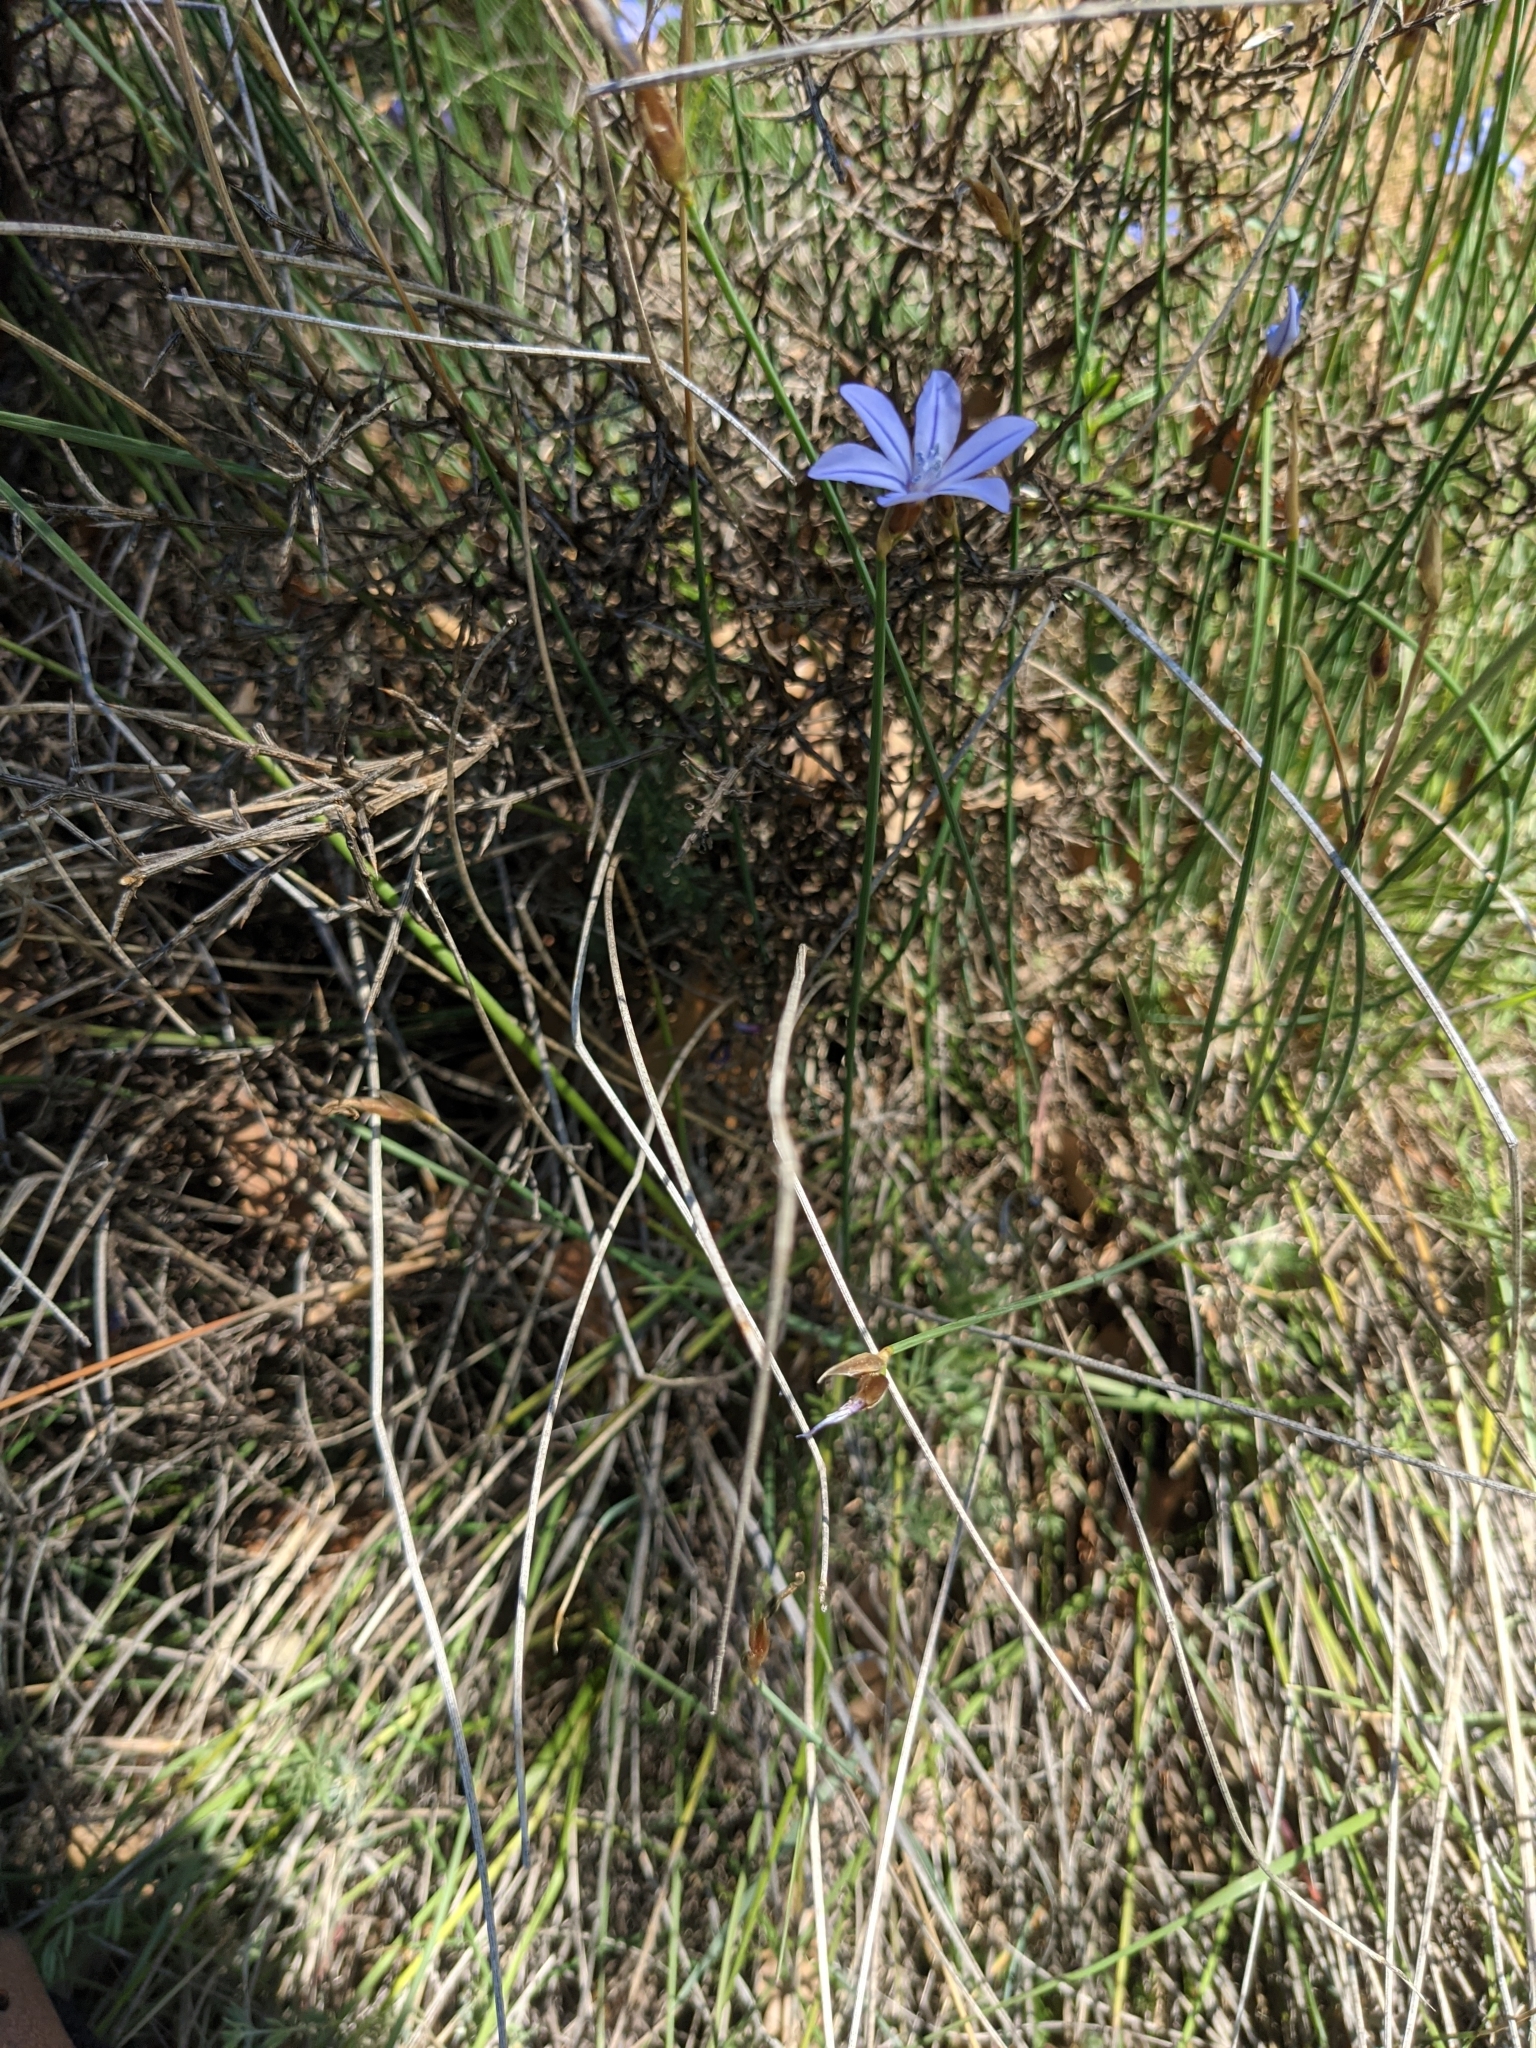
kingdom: Plantae
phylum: Tracheophyta
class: Liliopsida
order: Asparagales
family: Asparagaceae
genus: Aphyllanthes
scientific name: Aphyllanthes monspeliensis
